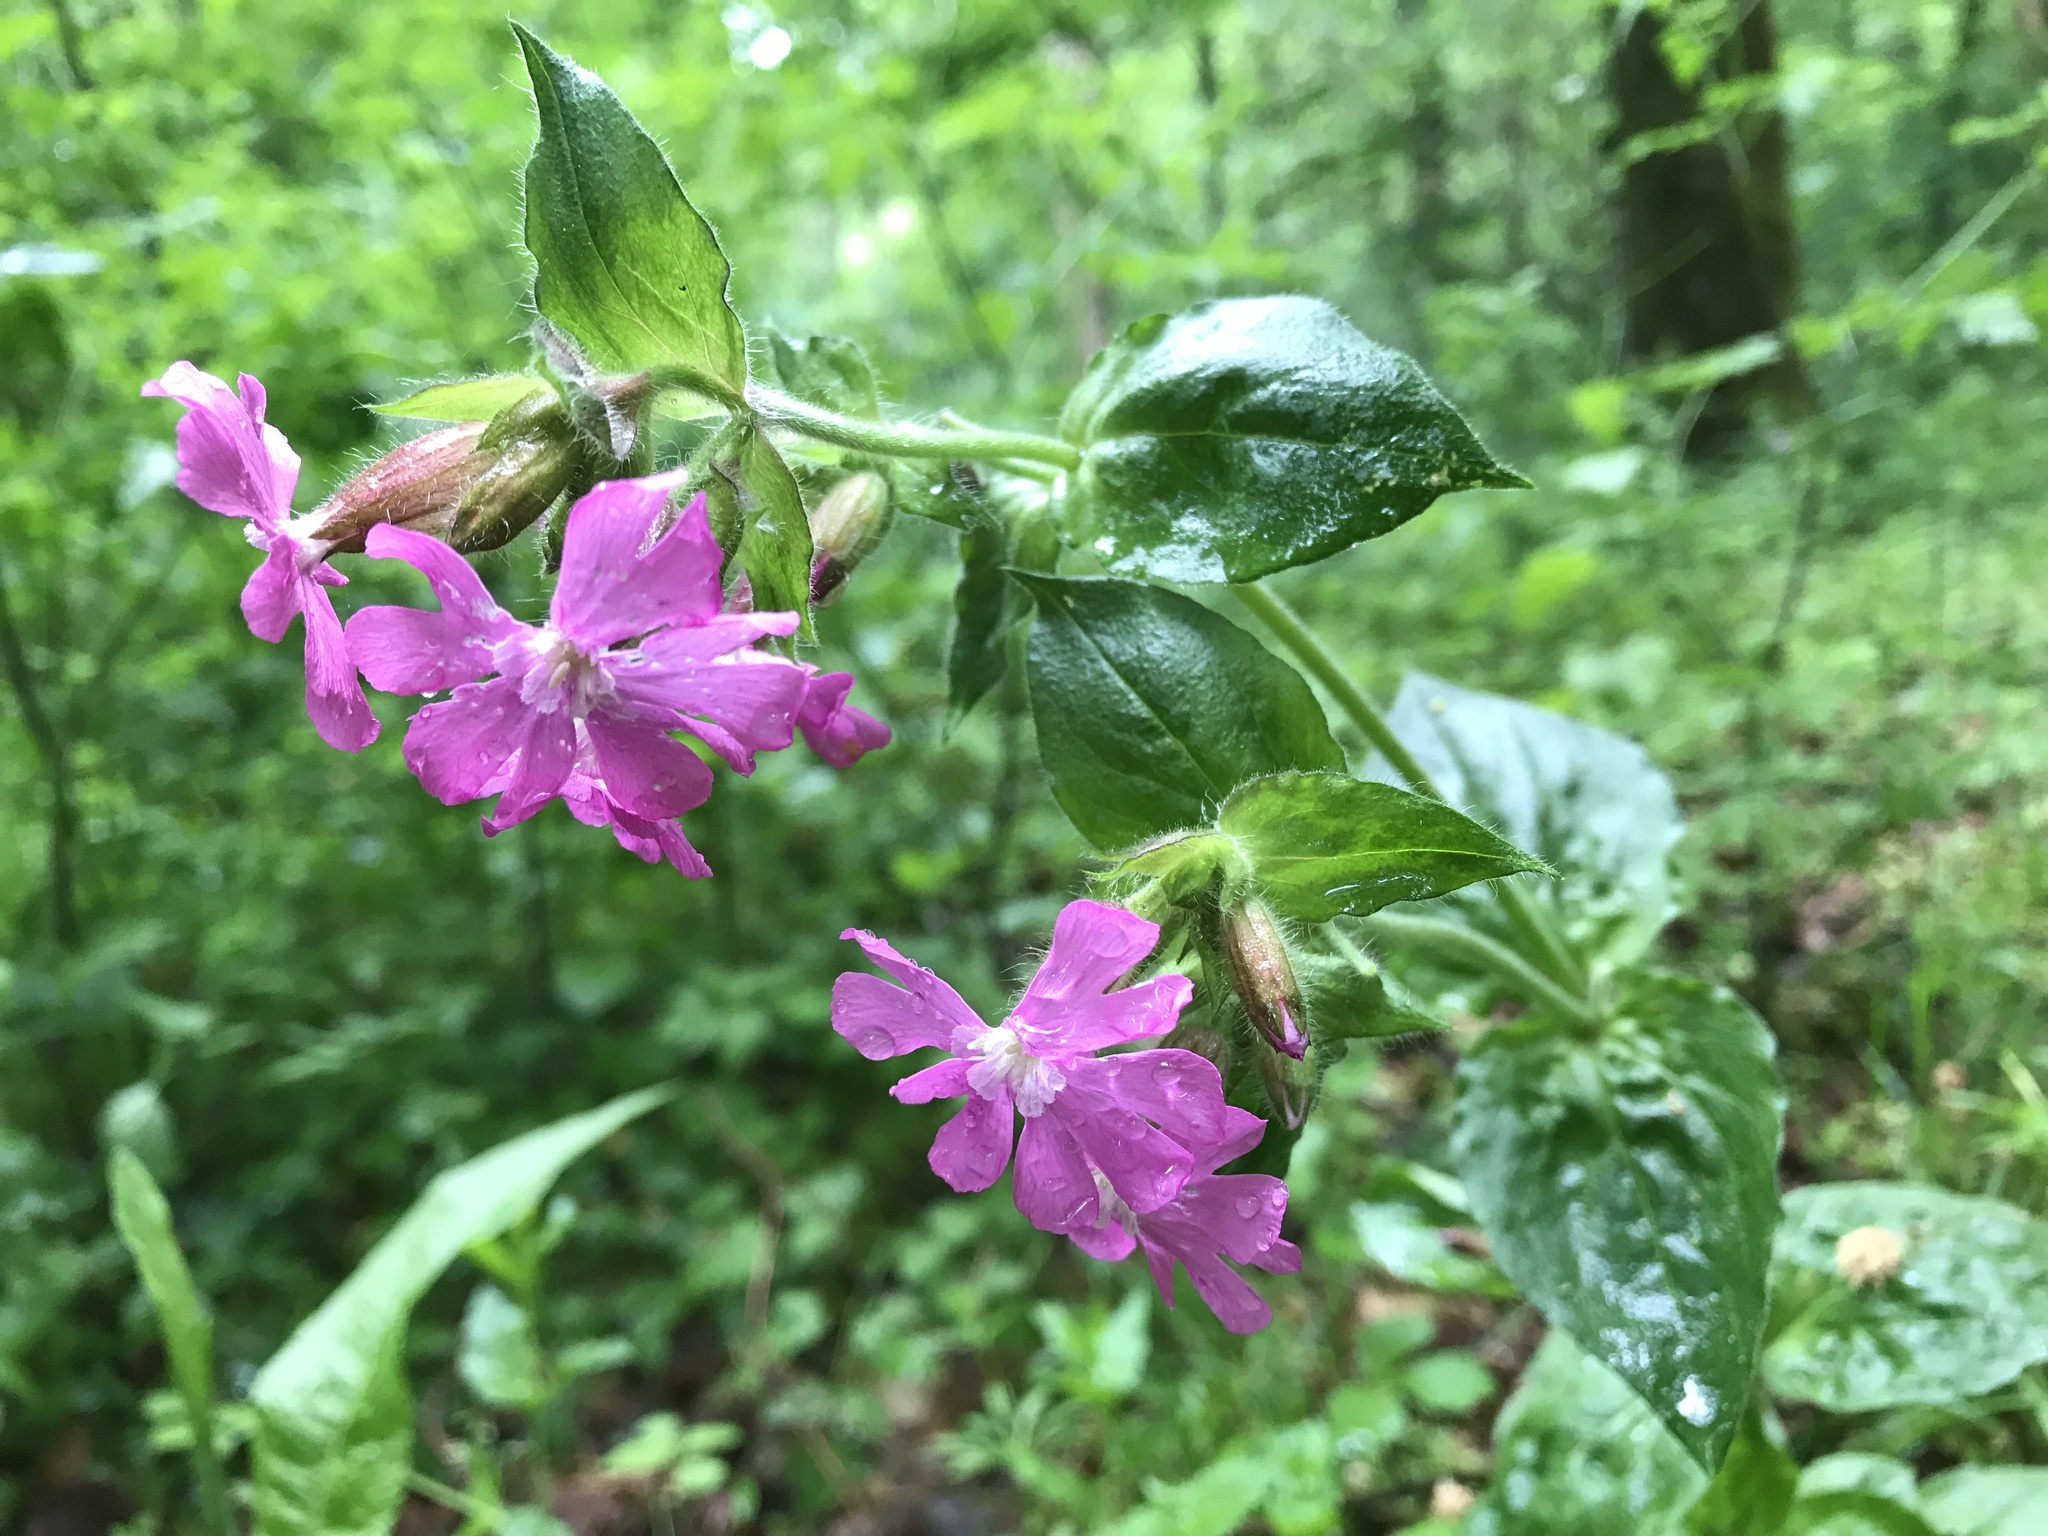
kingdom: Plantae
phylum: Tracheophyta
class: Magnoliopsida
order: Caryophyllales
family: Caryophyllaceae
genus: Silene
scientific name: Silene dioica
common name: Red campion
